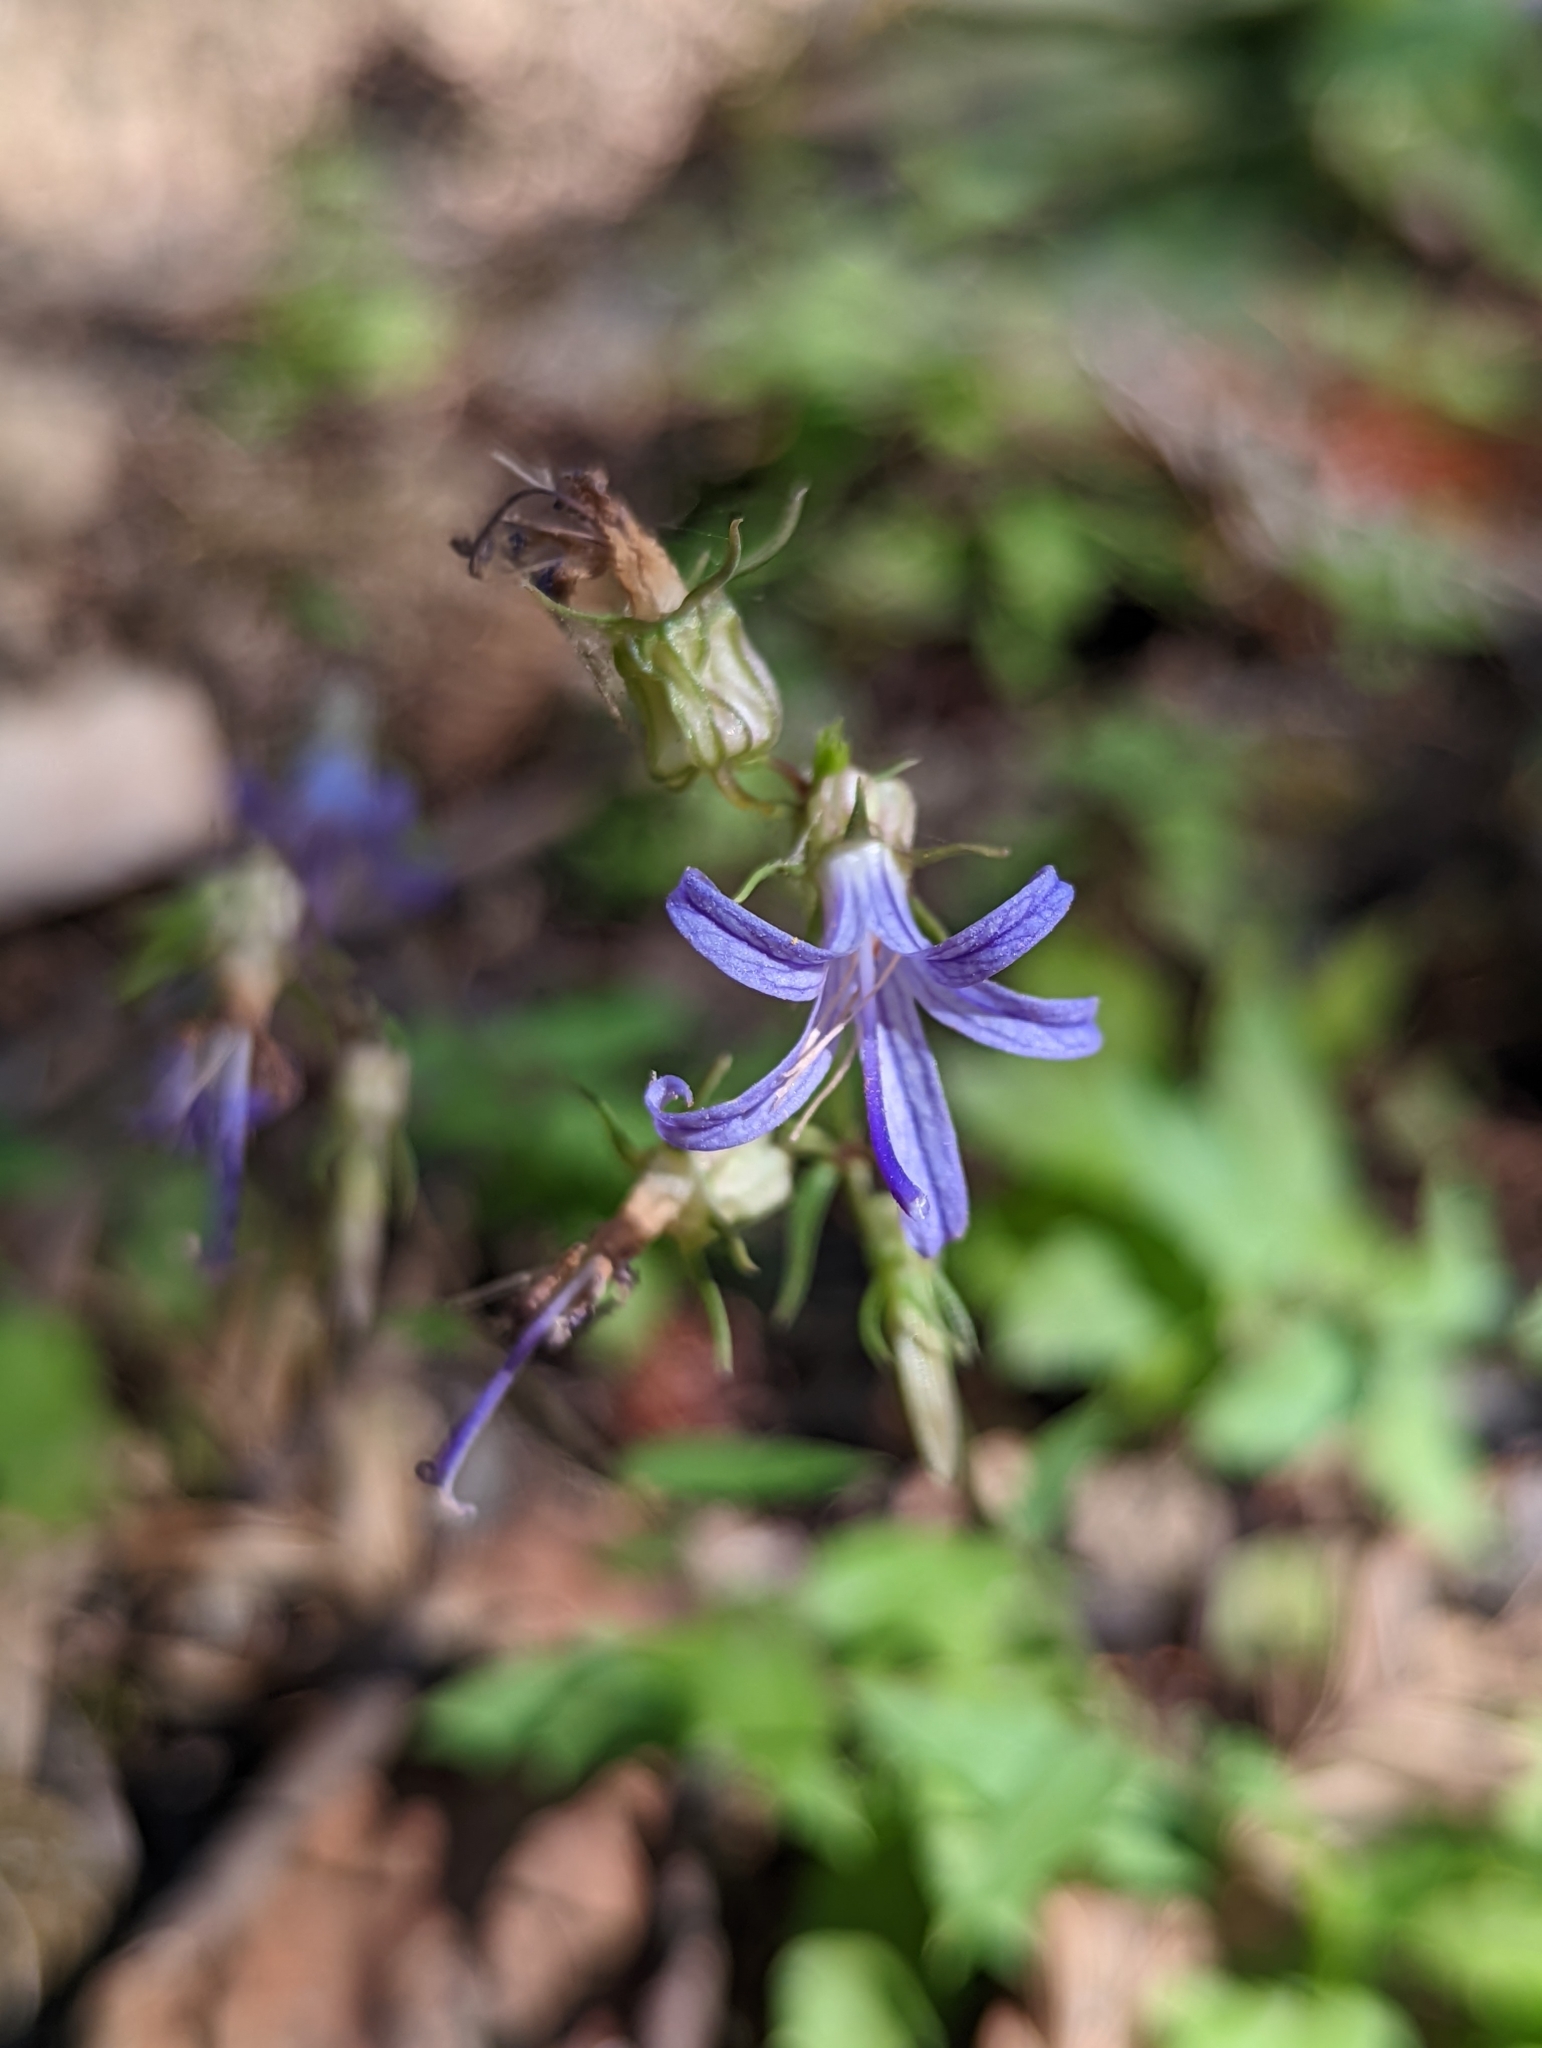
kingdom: Plantae
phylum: Tracheophyta
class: Magnoliopsida
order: Asterales
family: Campanulaceae
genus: Smithiastrum
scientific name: Smithiastrum prenanthoides
